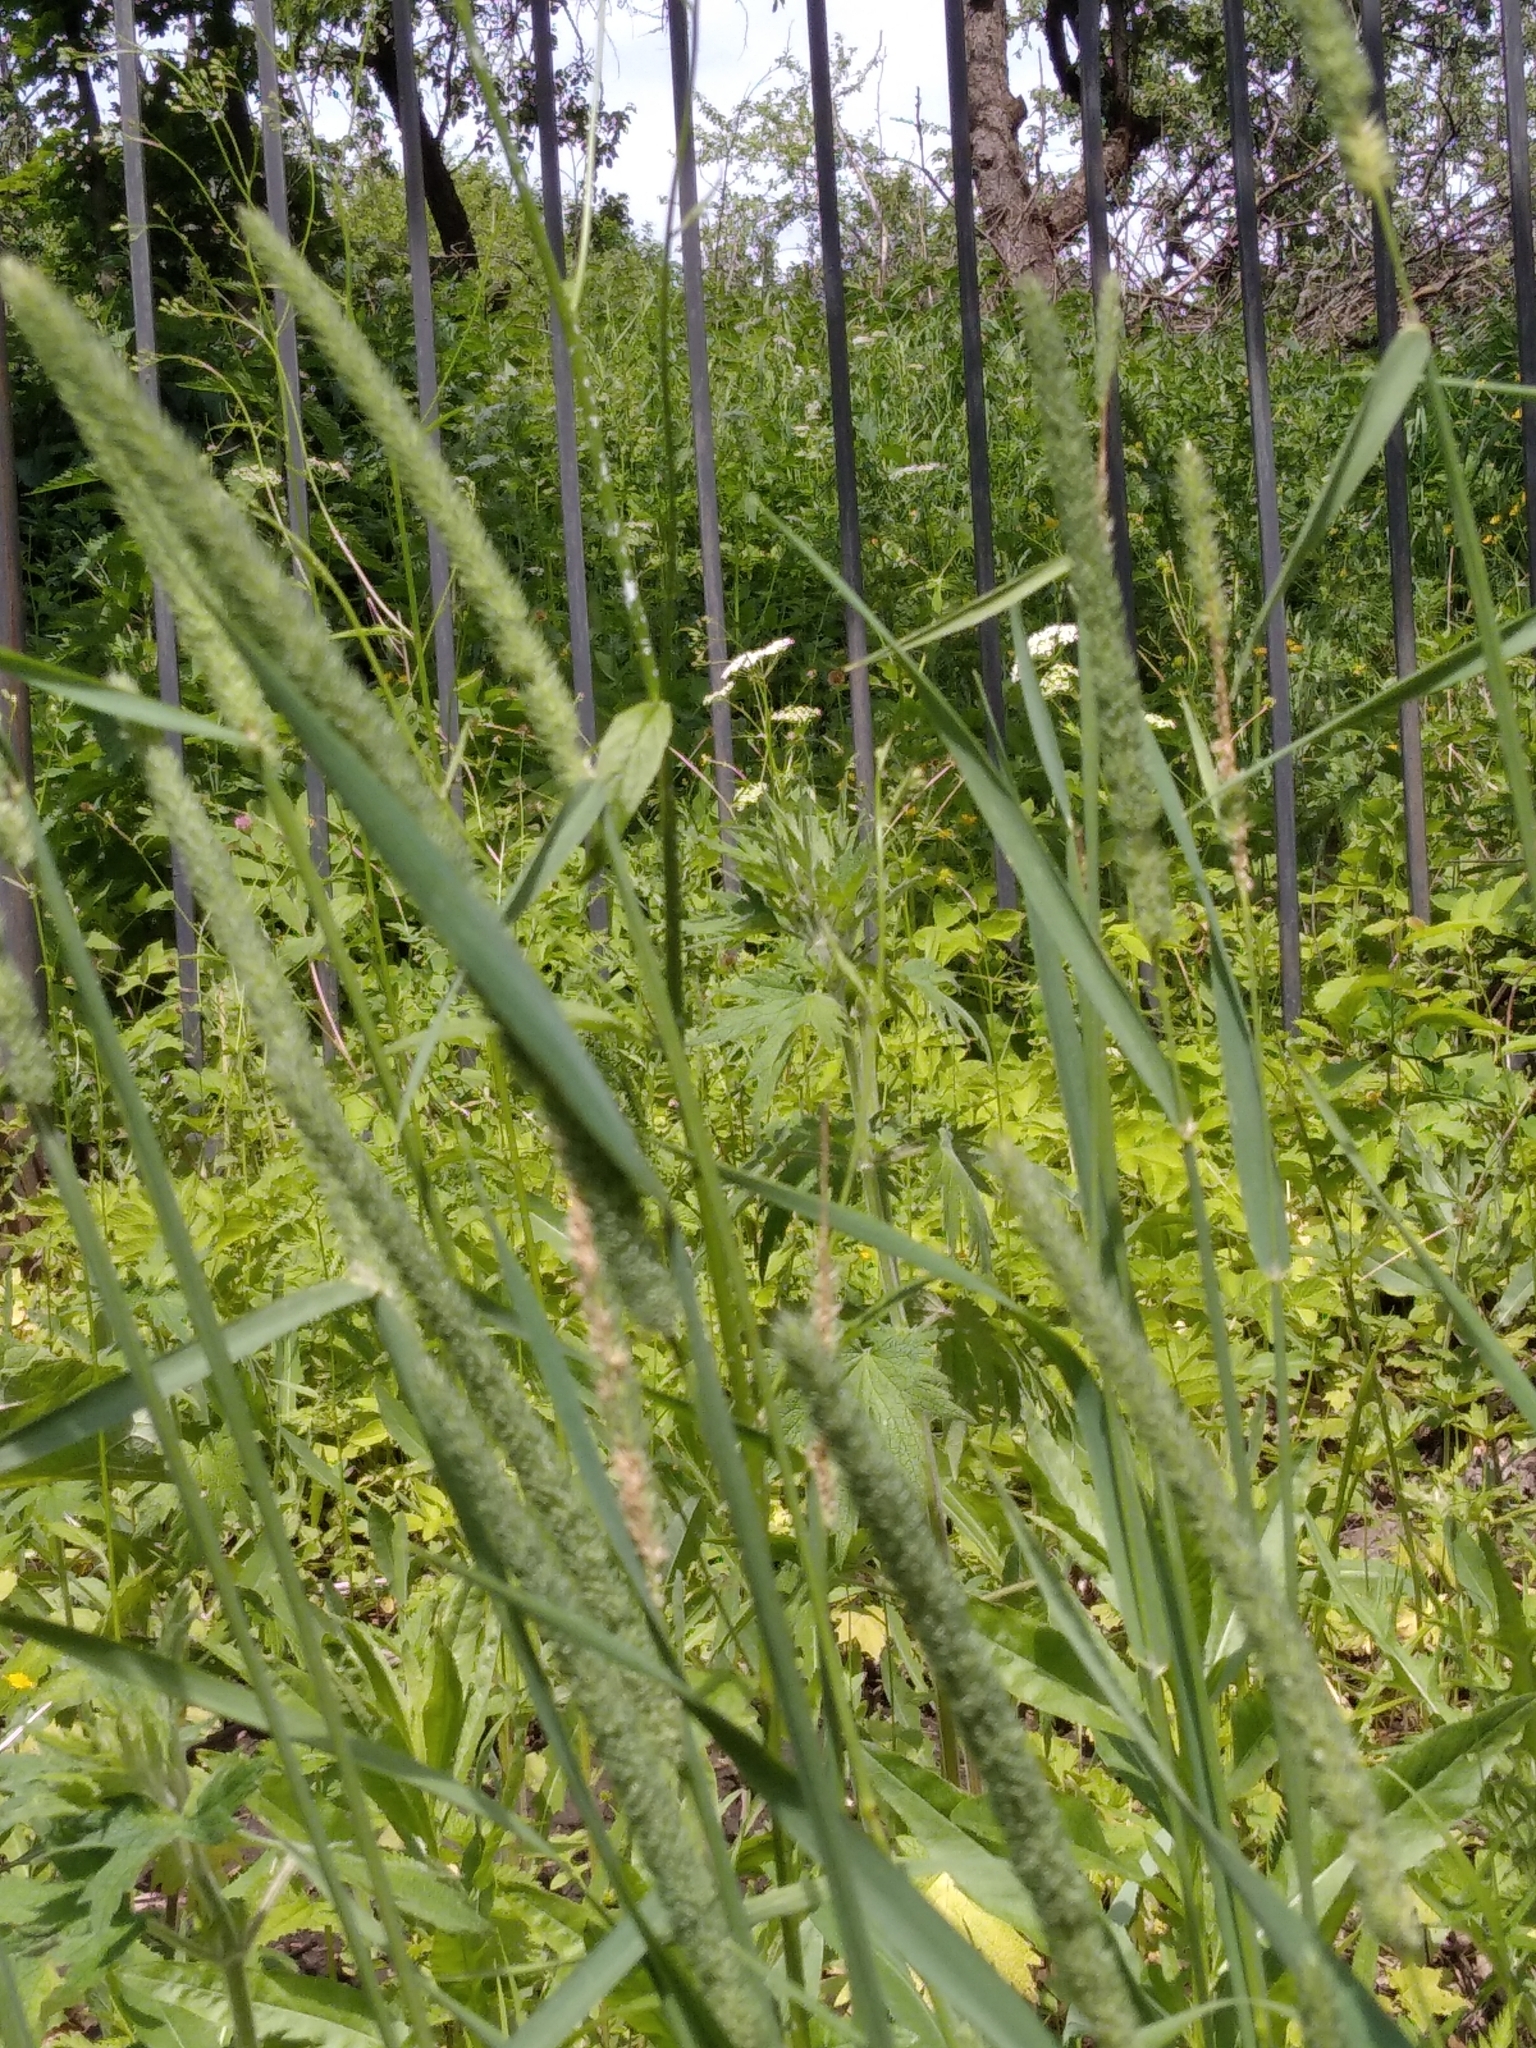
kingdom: Plantae
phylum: Tracheophyta
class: Liliopsida
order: Poales
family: Poaceae
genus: Phleum
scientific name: Phleum pratense
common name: Timothy grass
